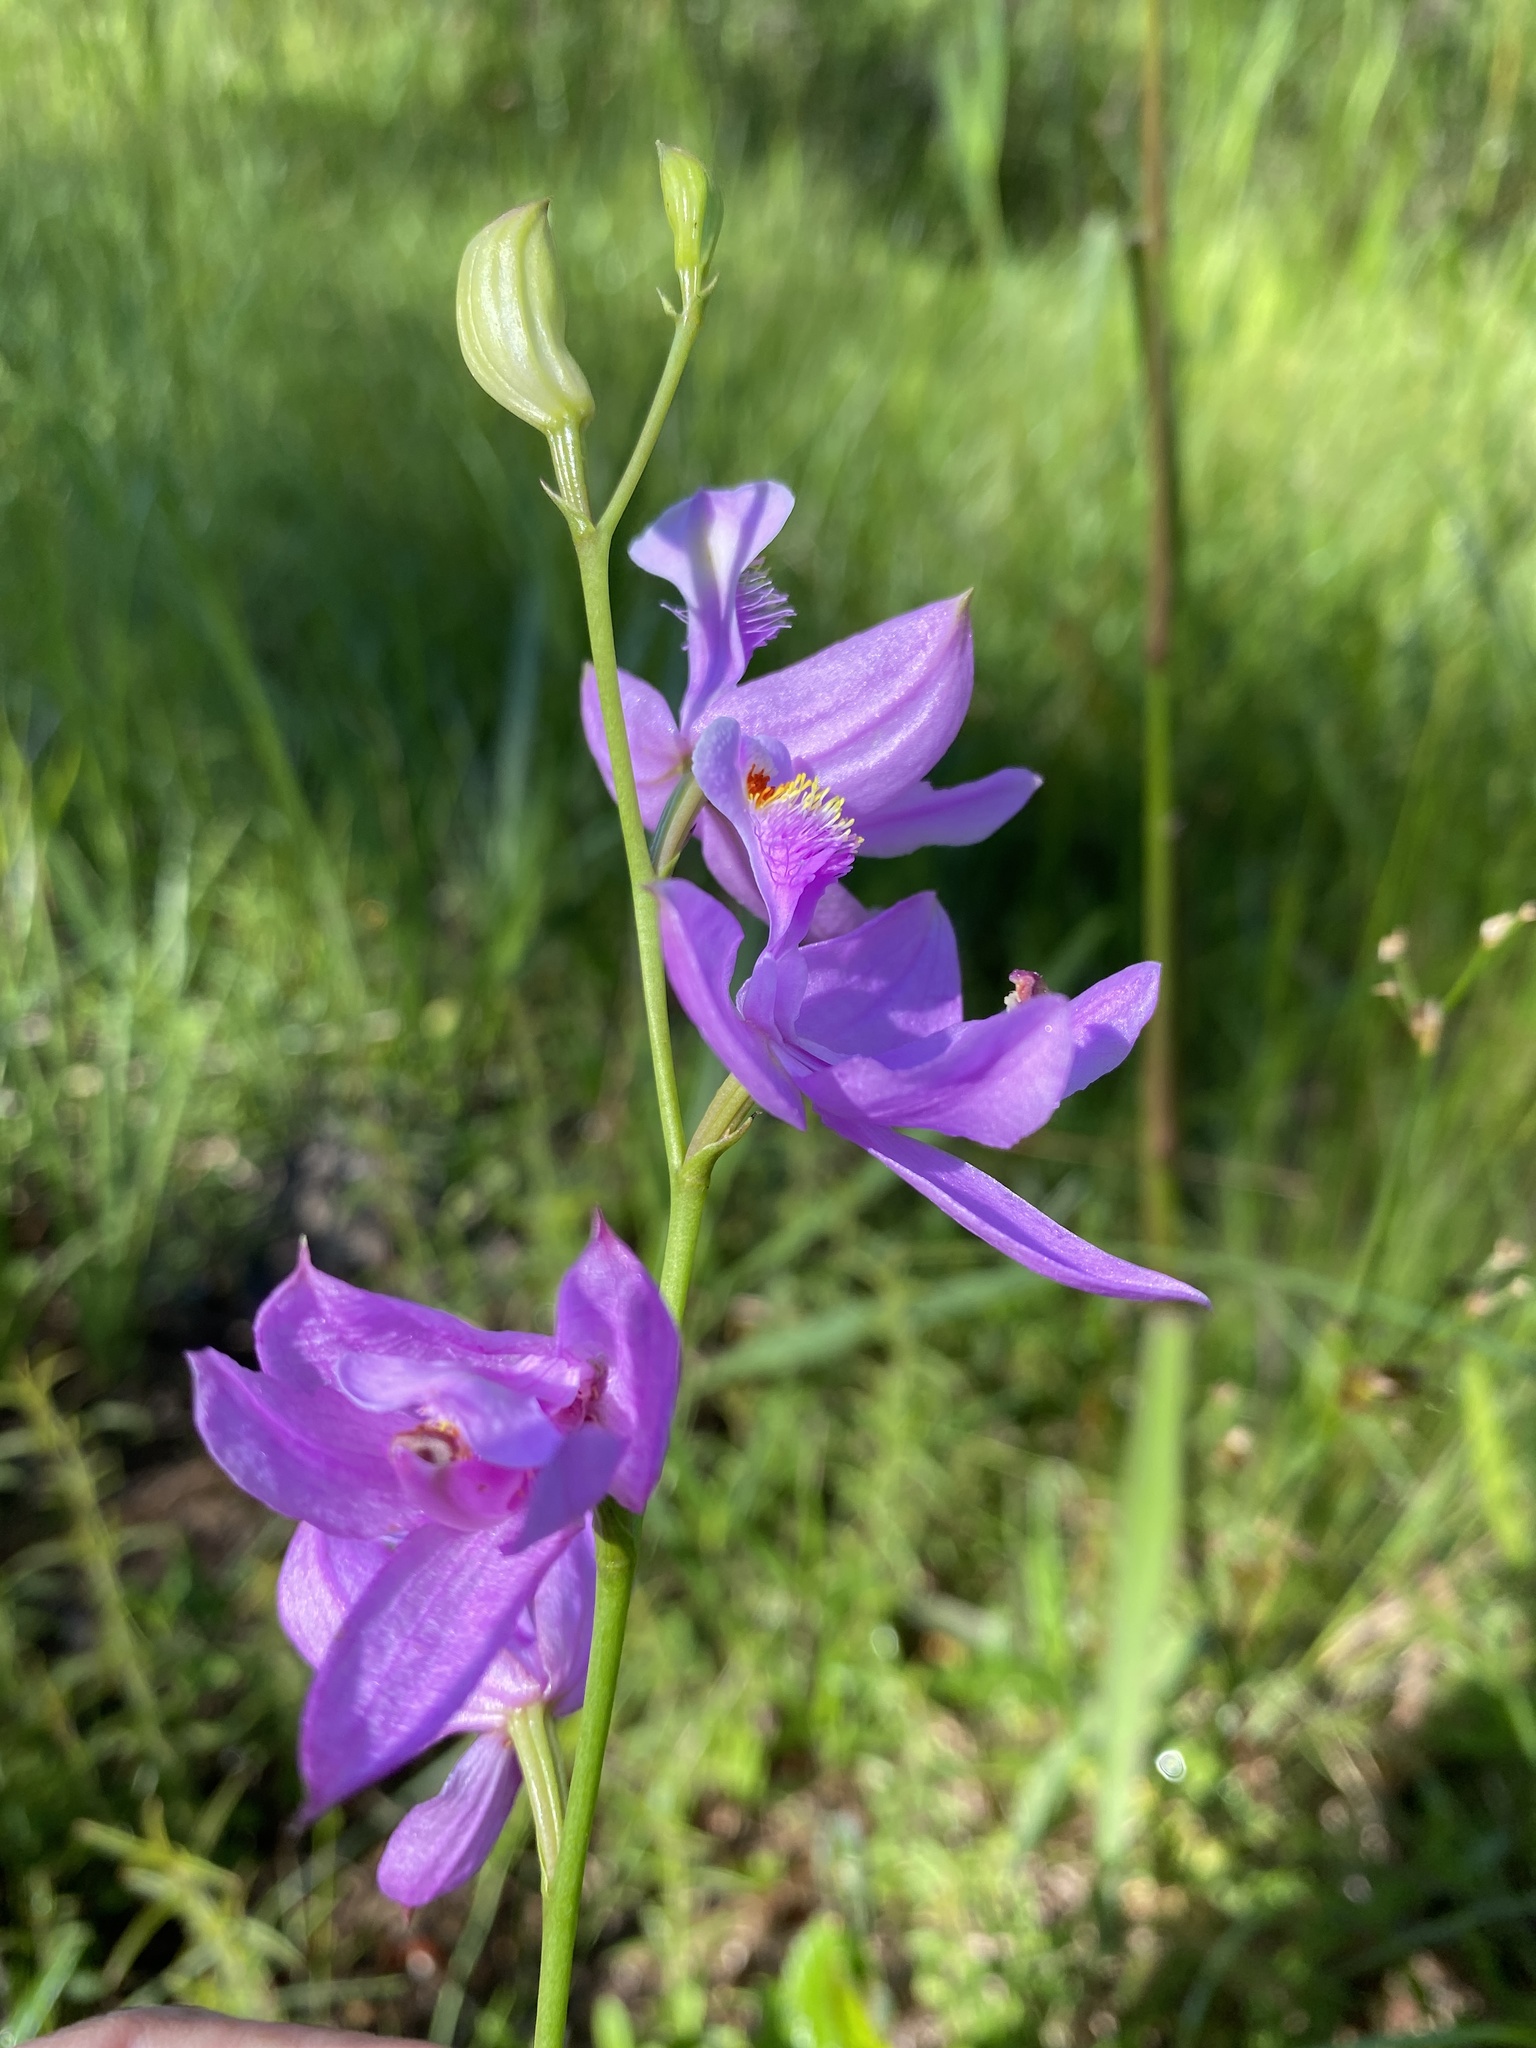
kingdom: Plantae
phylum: Tracheophyta
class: Liliopsida
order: Asparagales
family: Orchidaceae
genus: Calopogon
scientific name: Calopogon tuberosus
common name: Grass-pink
